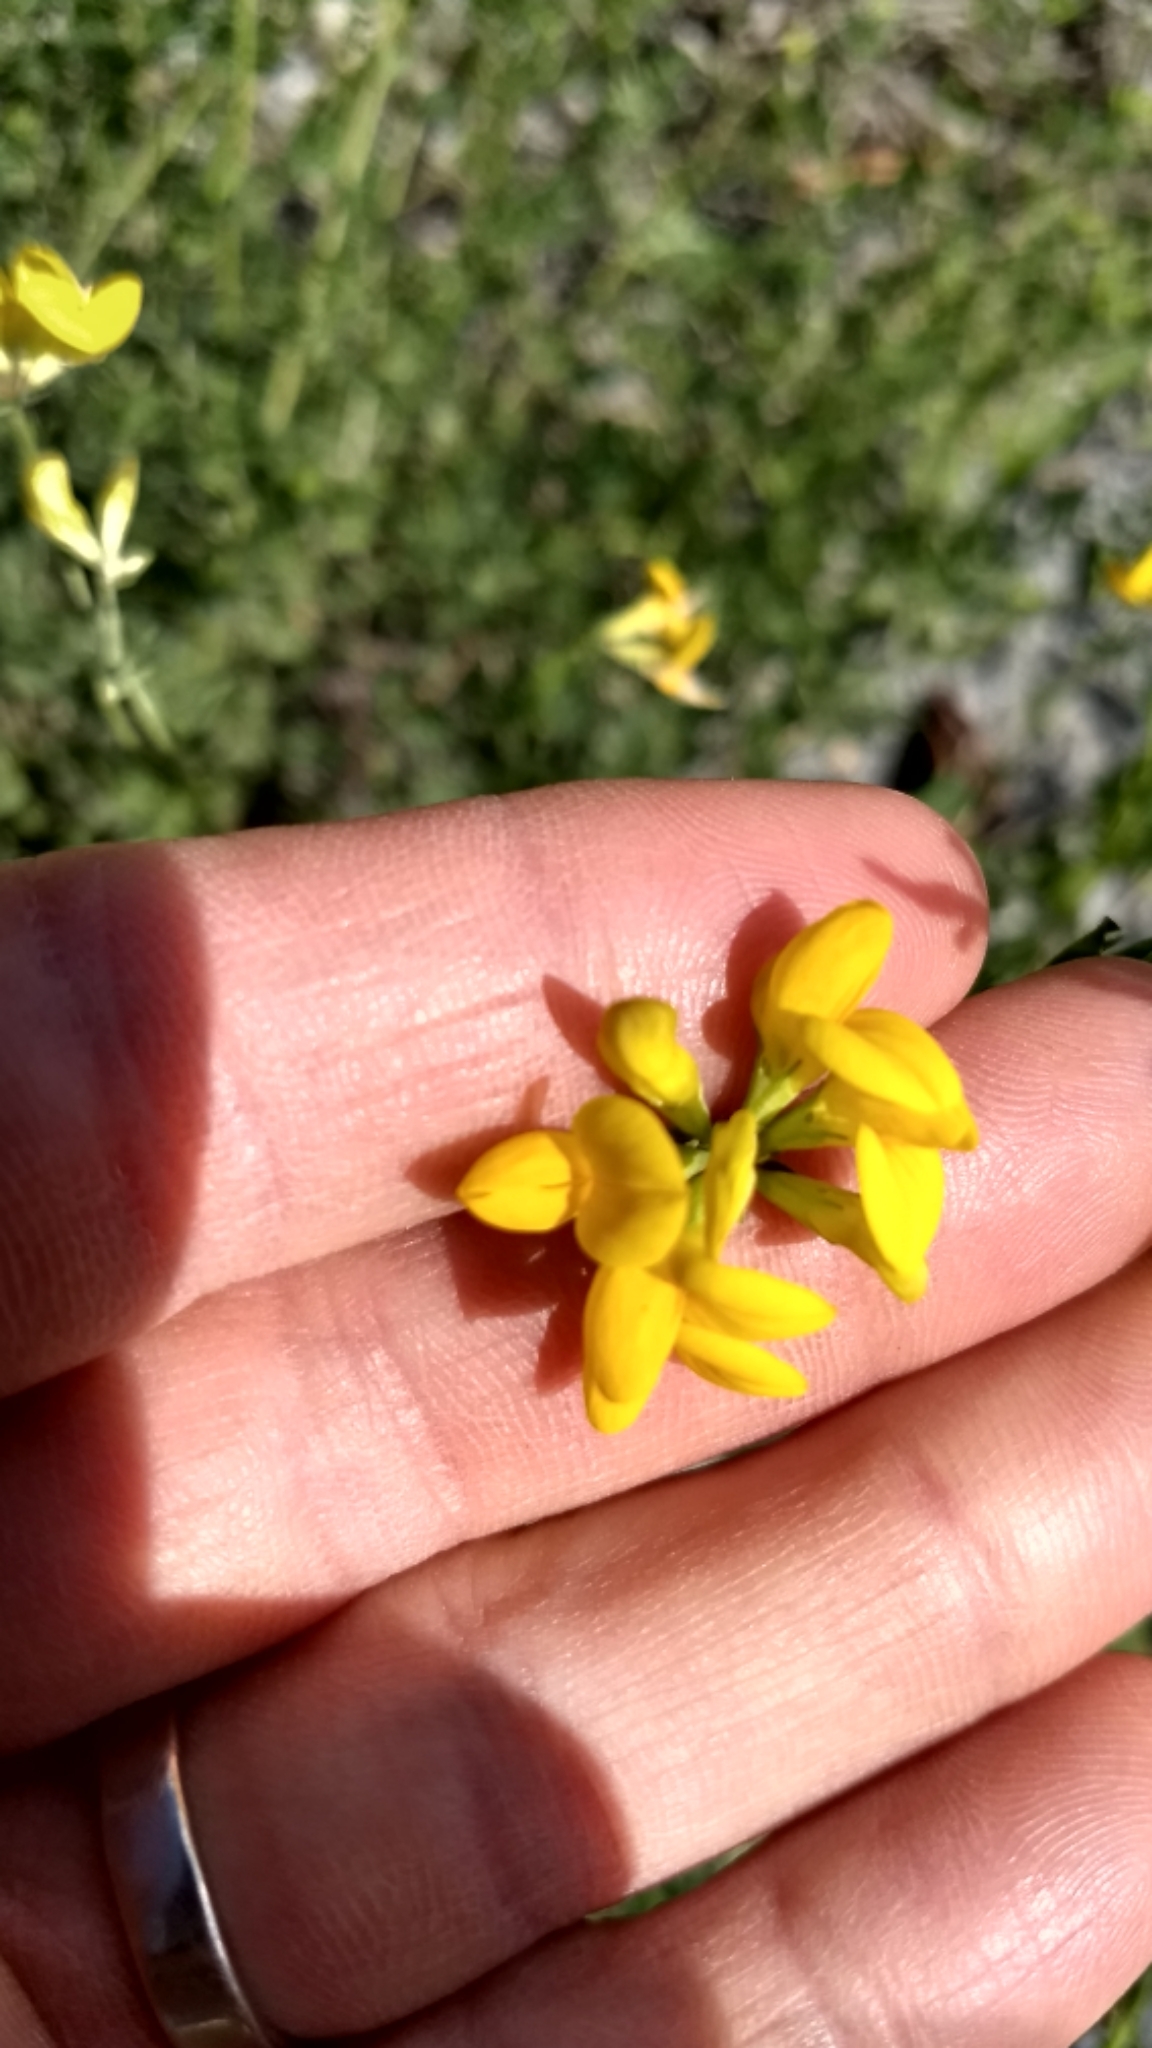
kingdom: Plantae
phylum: Tracheophyta
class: Magnoliopsida
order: Fabales
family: Fabaceae
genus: Lotus
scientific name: Lotus corniculatus
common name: Common bird's-foot-trefoil
